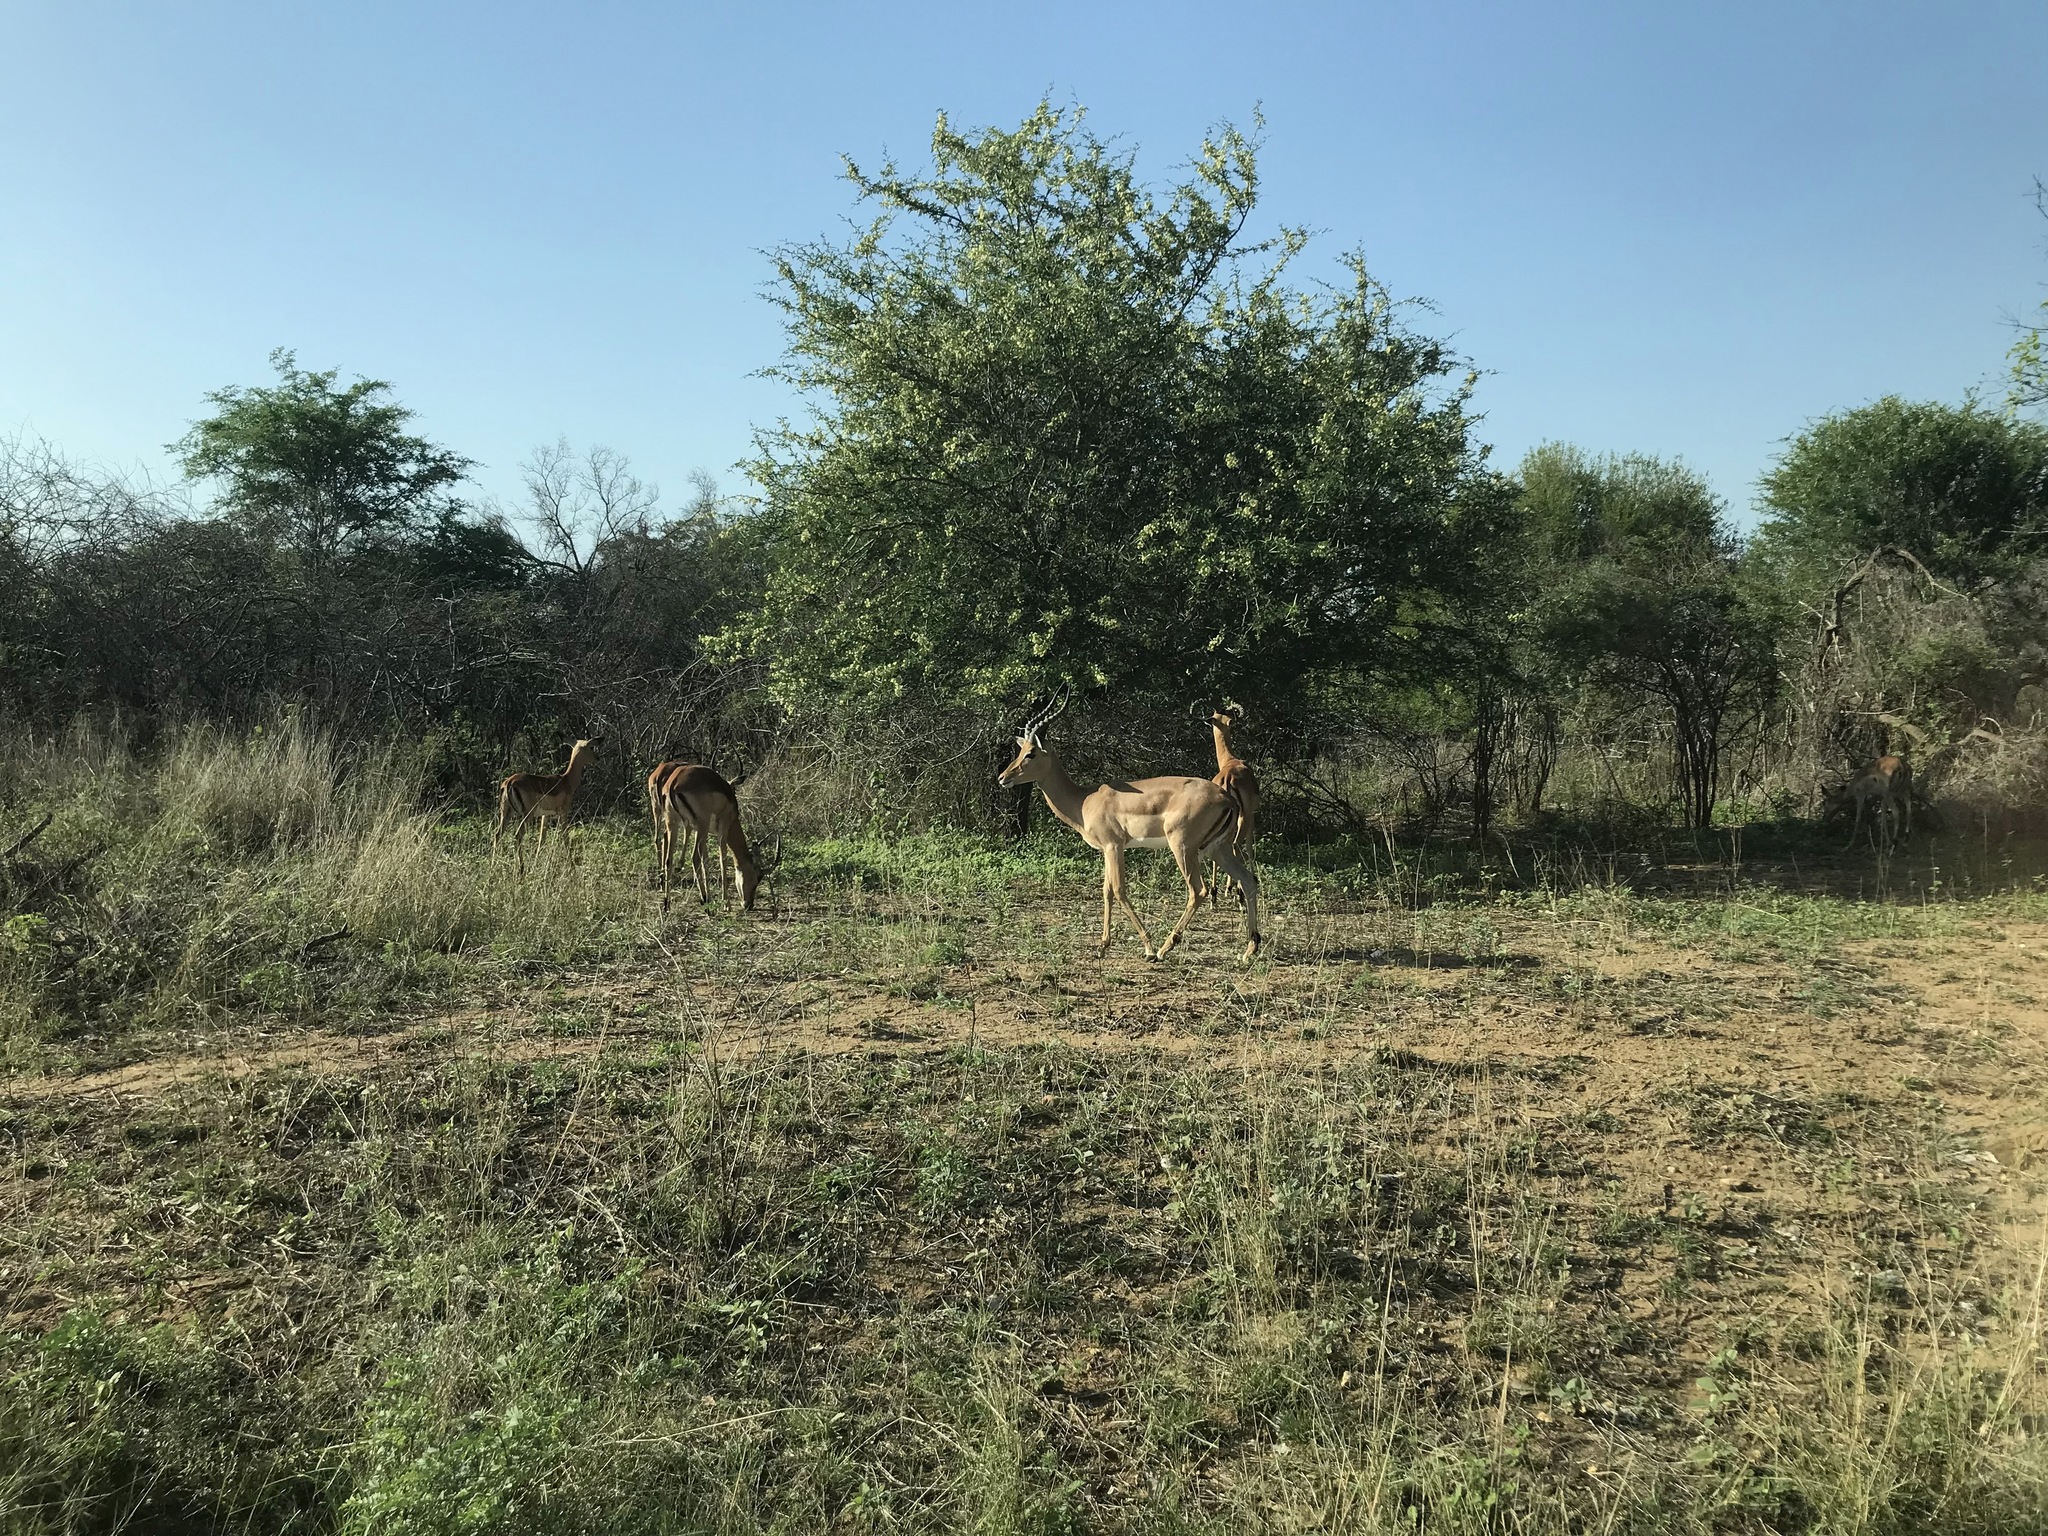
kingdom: Animalia
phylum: Chordata
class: Mammalia
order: Artiodactyla
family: Bovidae
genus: Aepyceros
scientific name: Aepyceros melampus
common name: Impala
